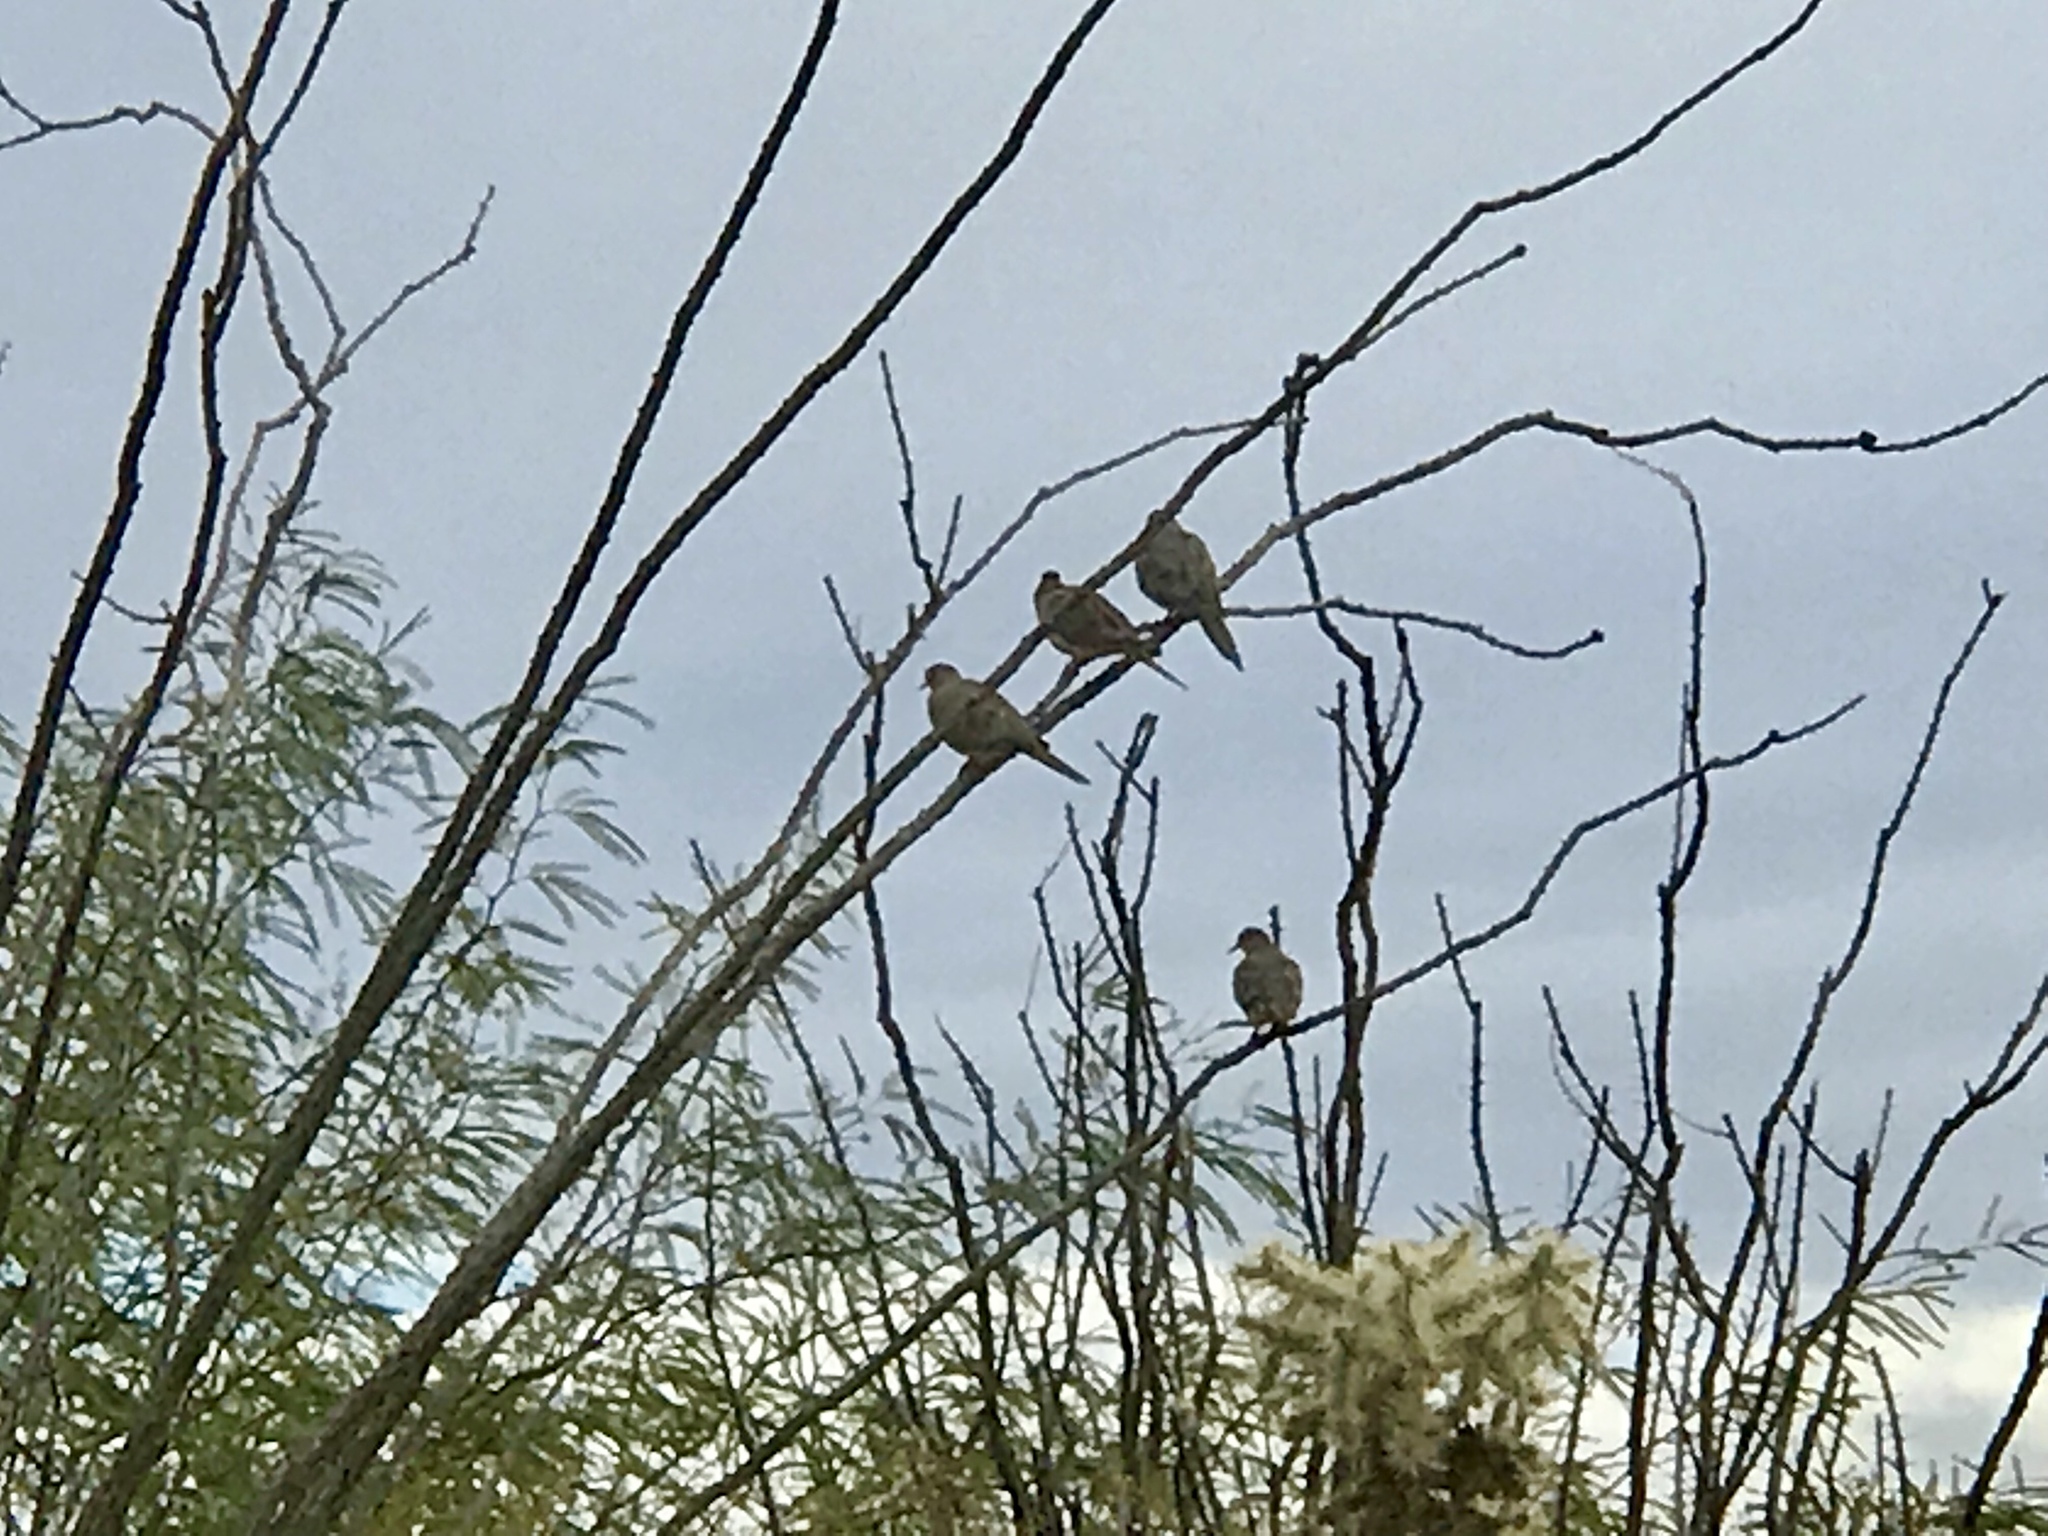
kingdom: Animalia
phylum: Chordata
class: Aves
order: Columbiformes
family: Columbidae
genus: Zenaida
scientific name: Zenaida macroura
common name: Mourning dove
